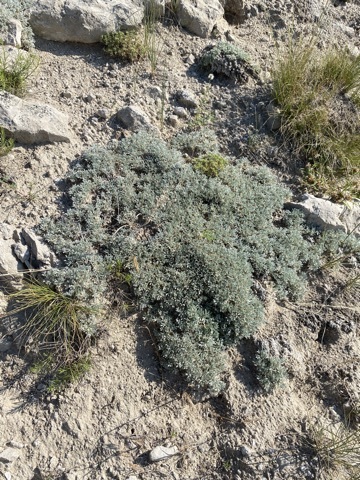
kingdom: Plantae
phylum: Tracheophyta
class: Magnoliopsida
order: Fabales
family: Fabaceae
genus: Astragalus
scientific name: Astragalus sericoleucus
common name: Silky orophaca
